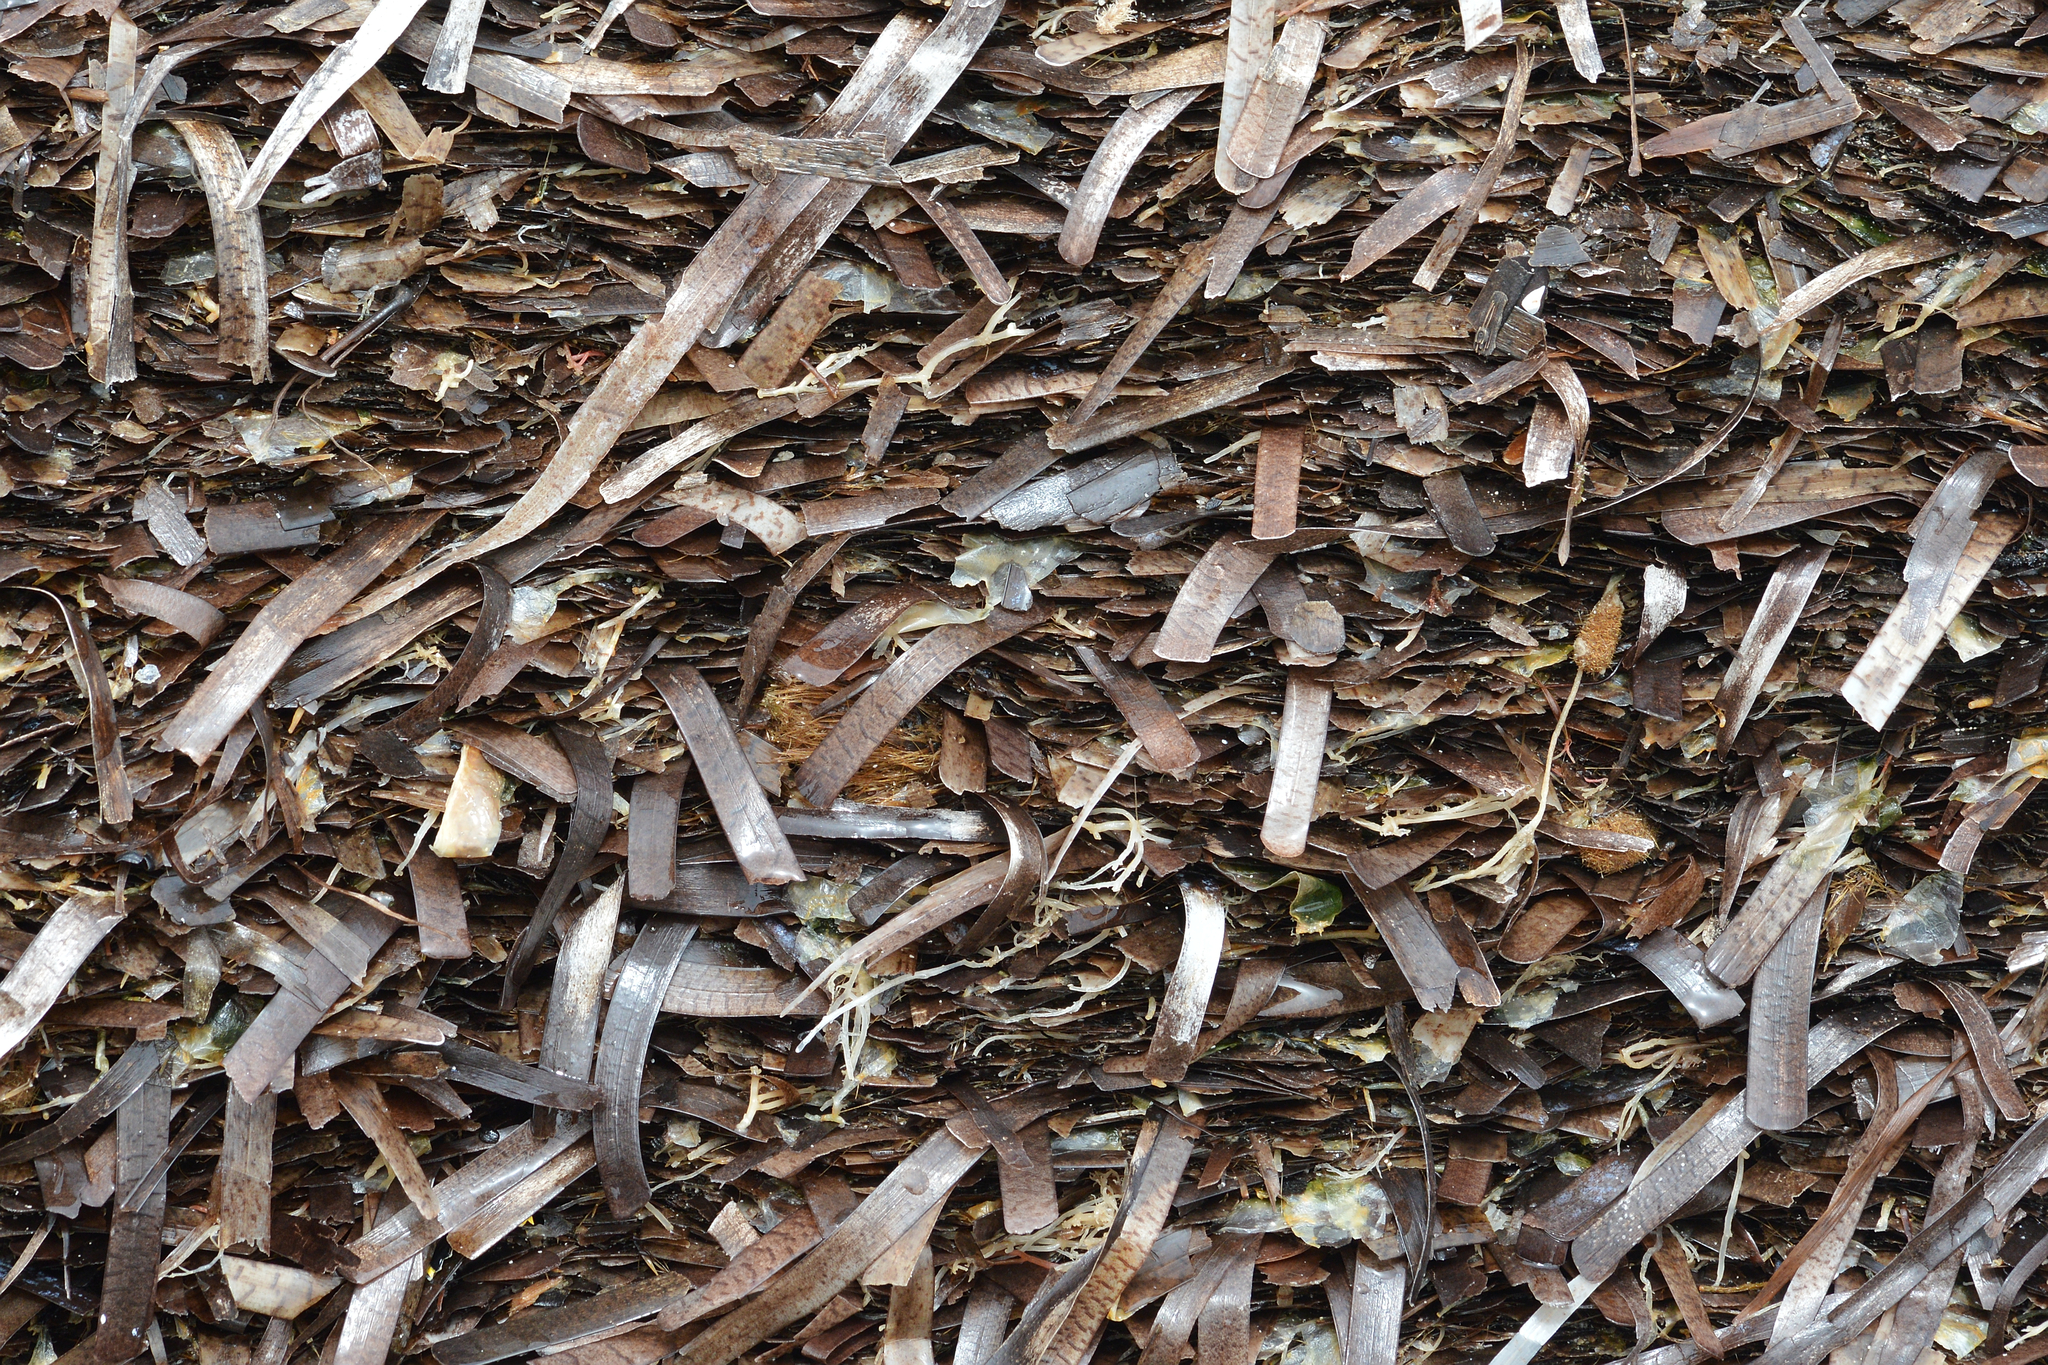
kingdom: Plantae
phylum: Tracheophyta
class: Liliopsida
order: Alismatales
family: Posidoniaceae
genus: Posidonia
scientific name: Posidonia oceanica
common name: Mediterranean tapeweed
